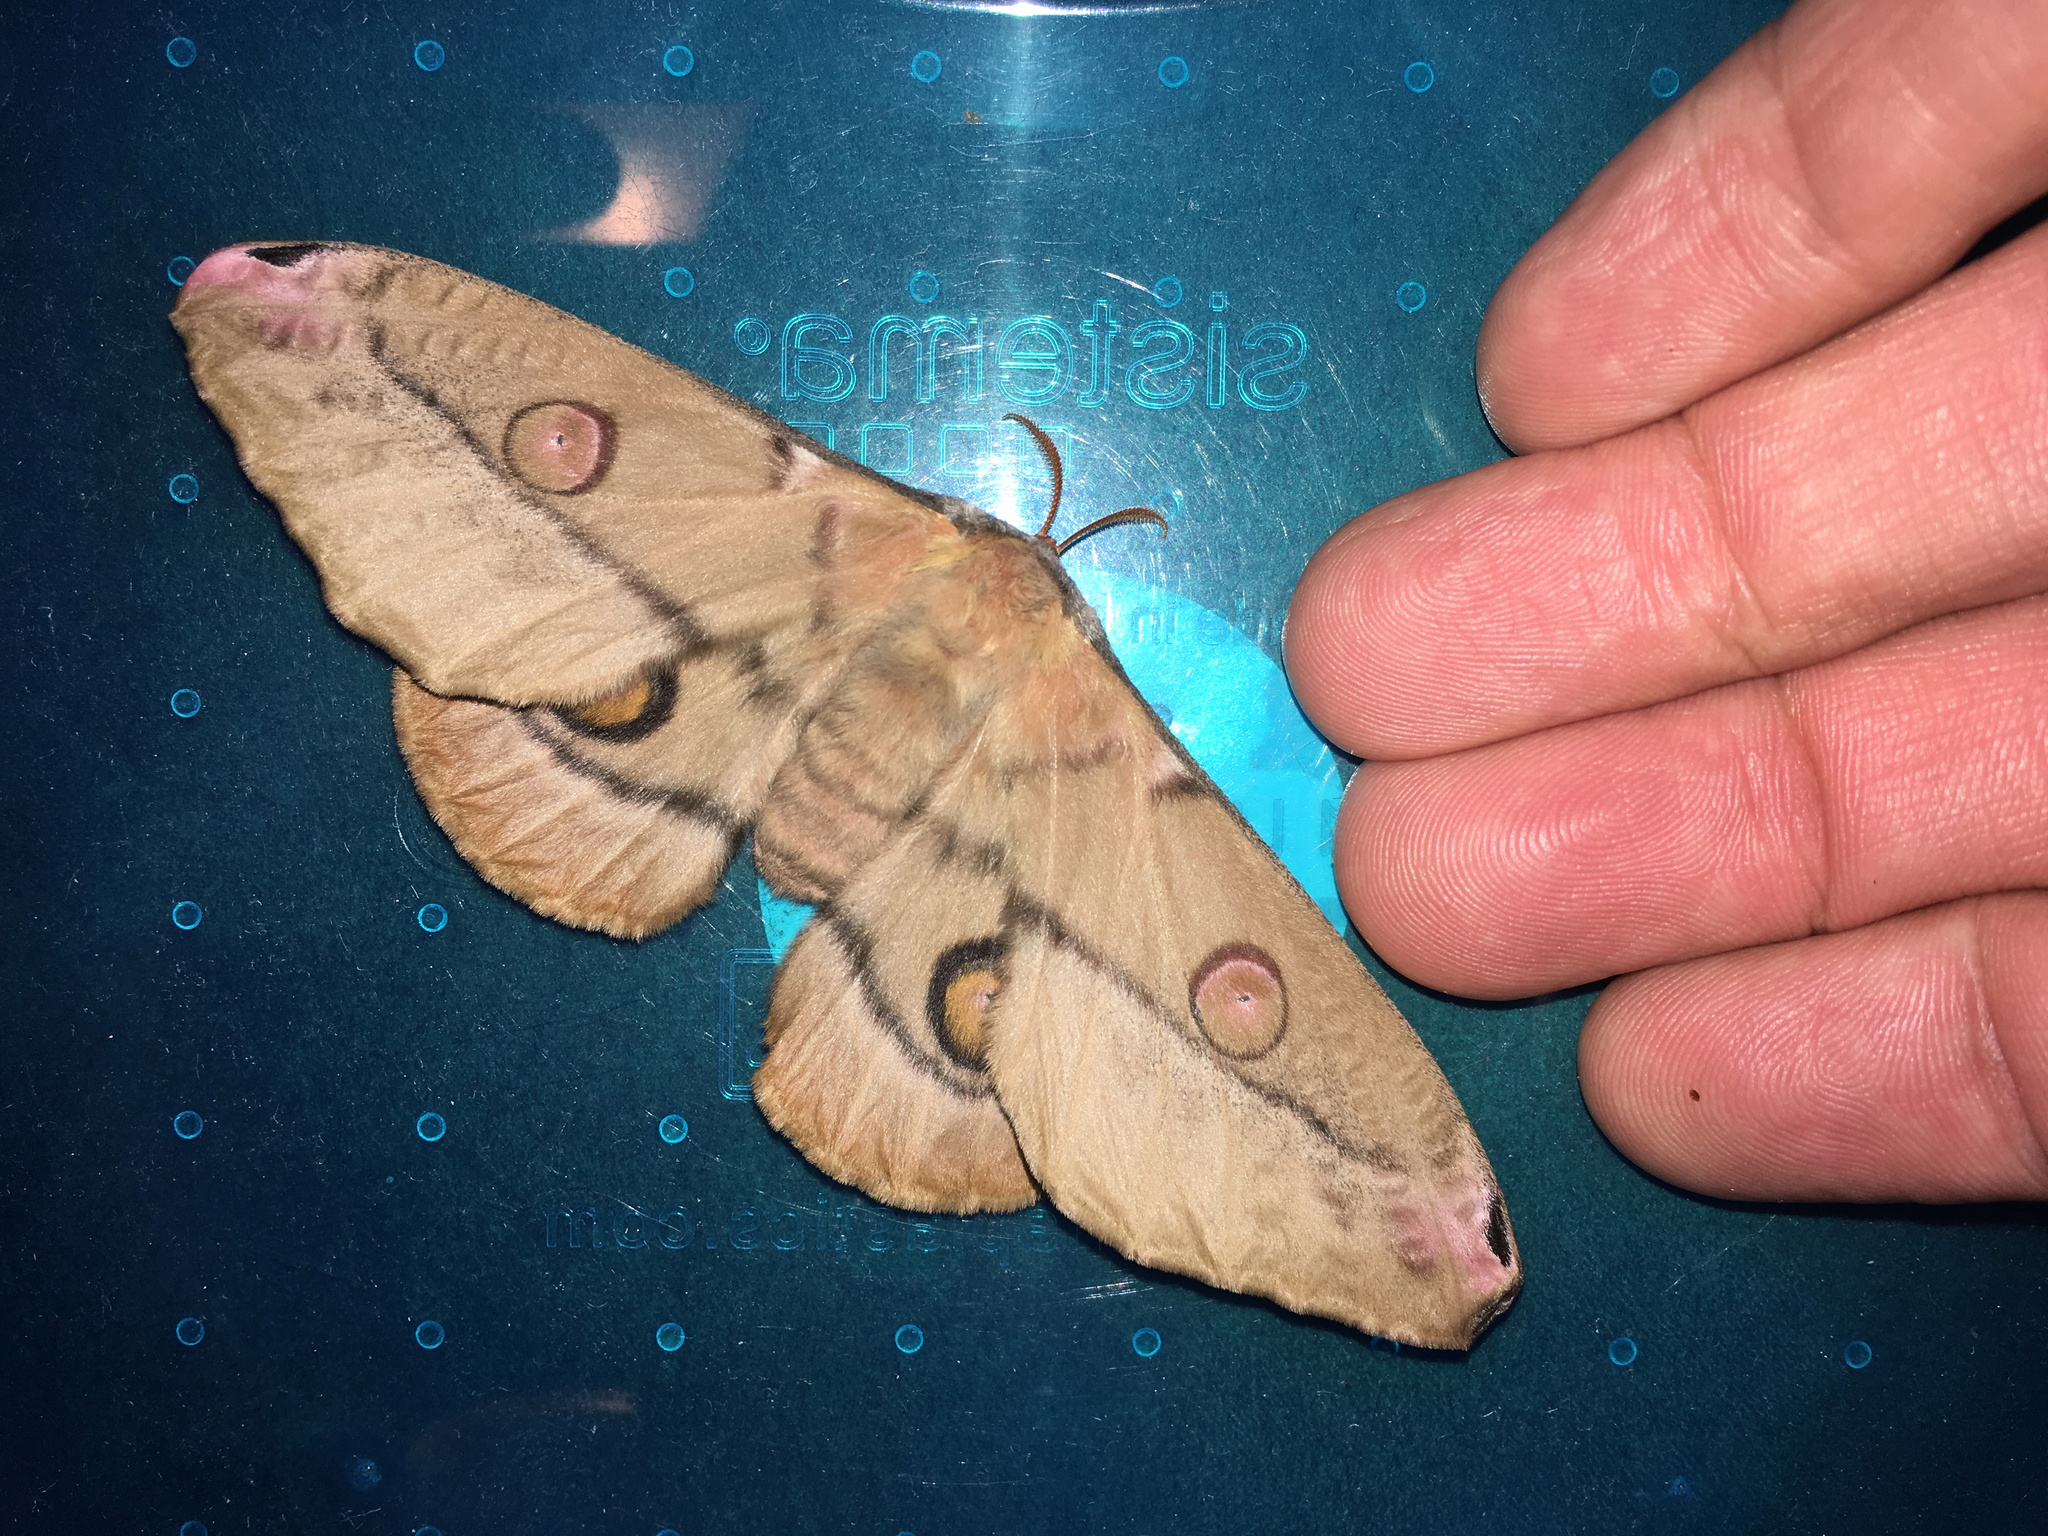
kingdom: Animalia
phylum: Arthropoda
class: Insecta
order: Lepidoptera
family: Saturniidae
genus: Opodiphthera
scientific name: Opodiphthera
